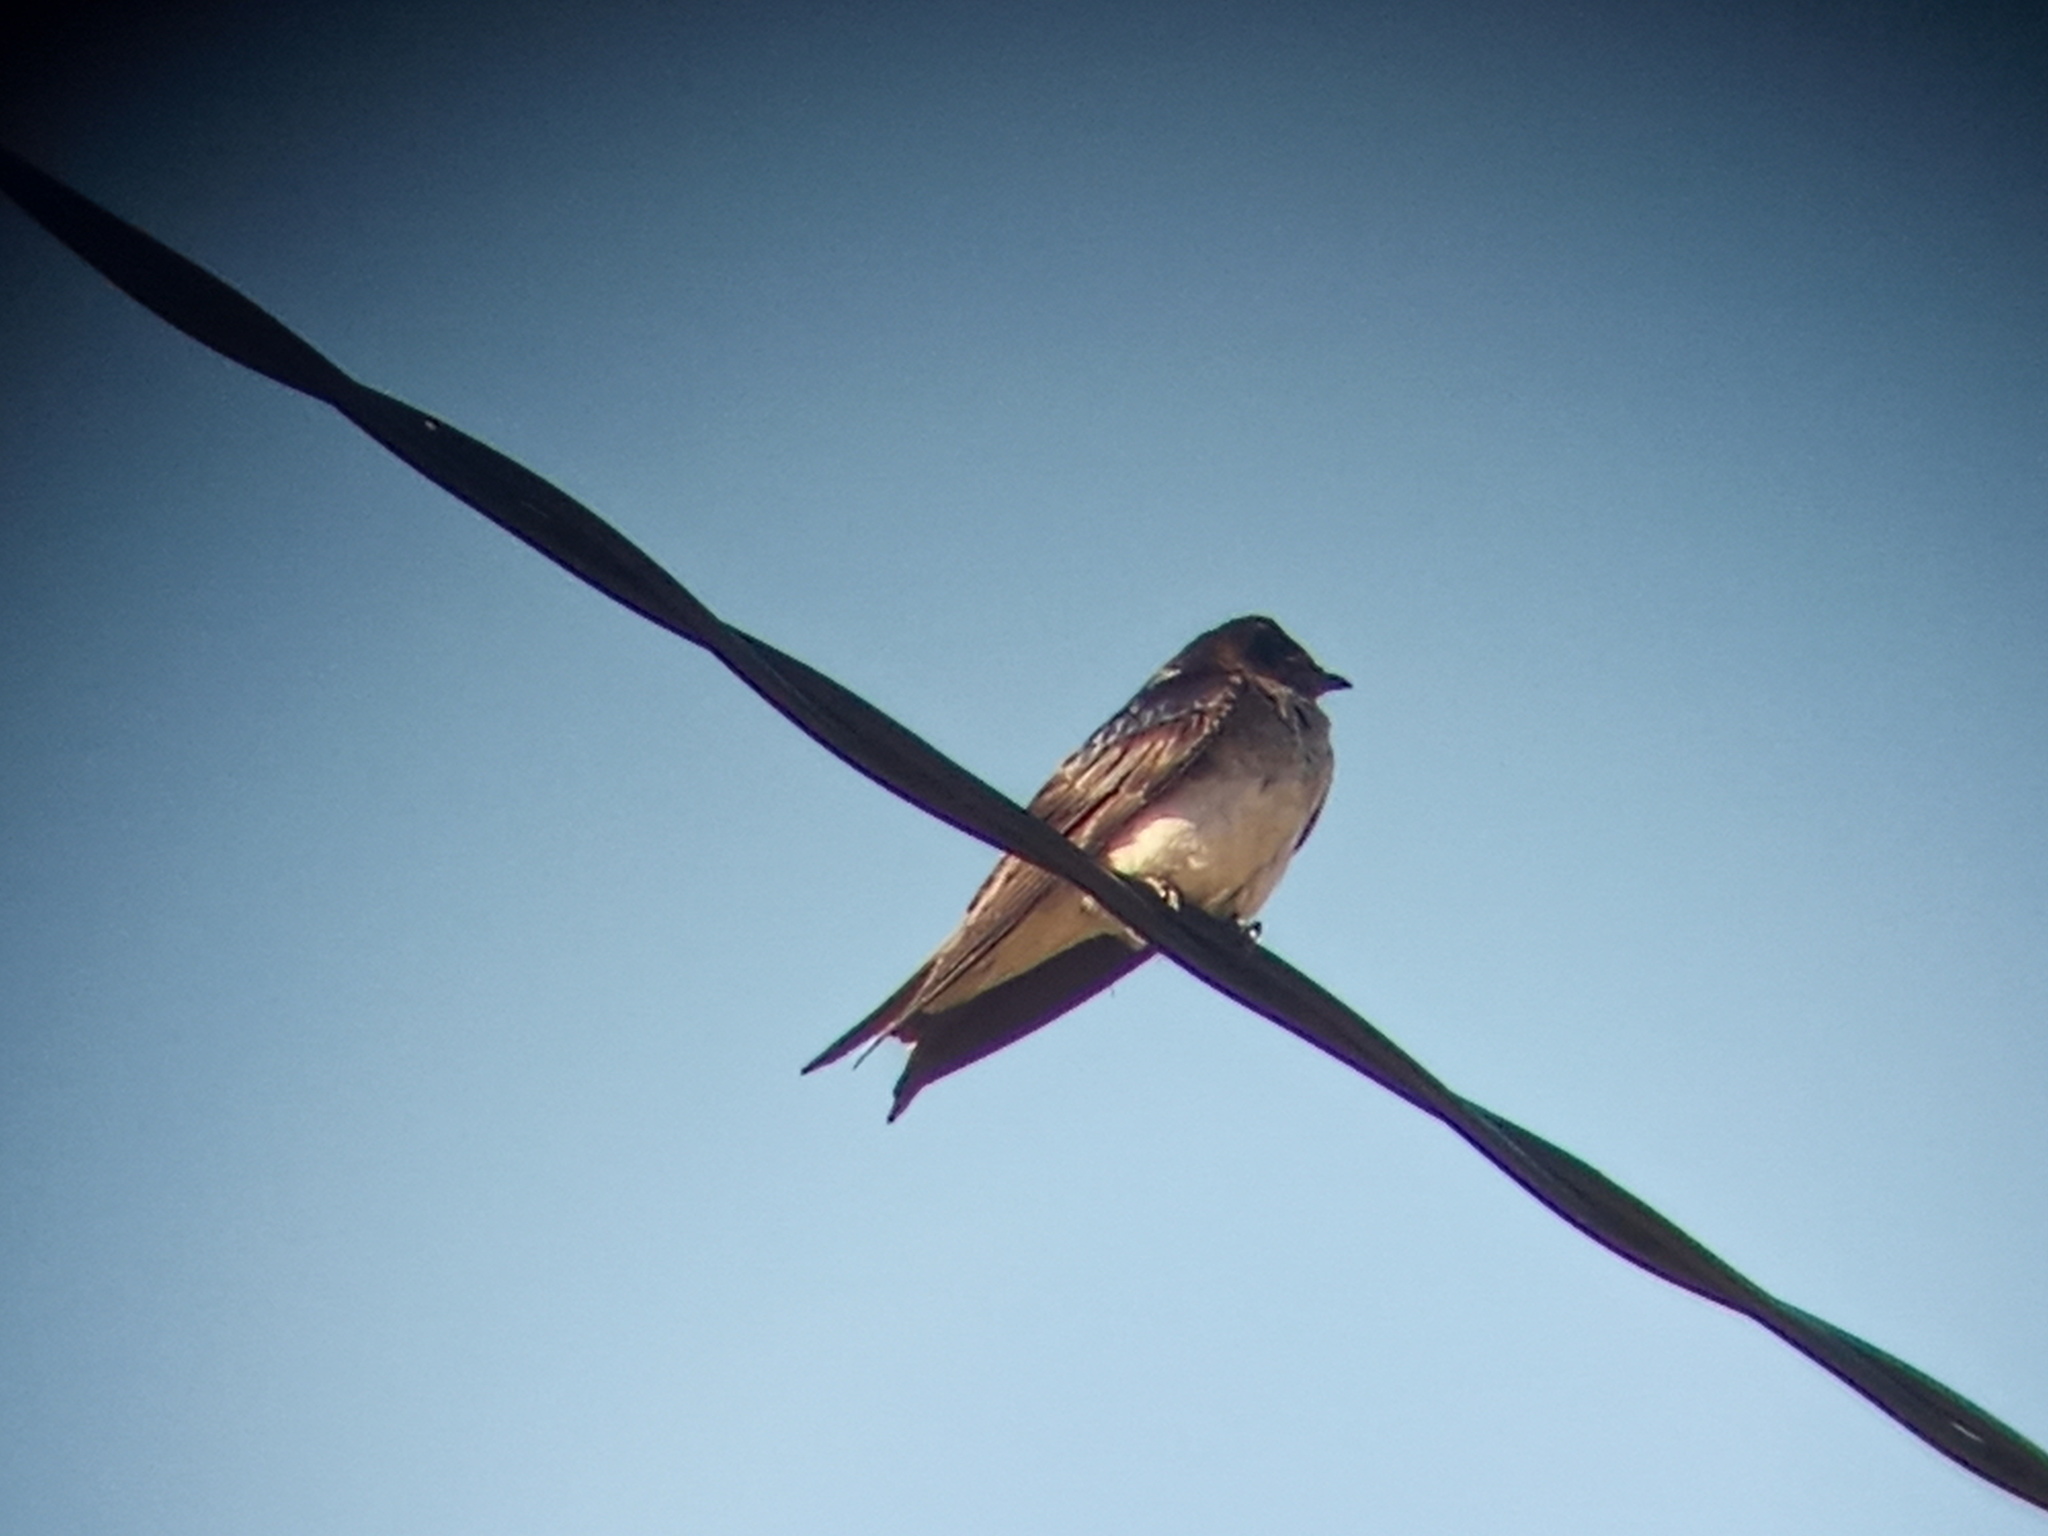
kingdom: Animalia
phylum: Chordata
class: Aves
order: Passeriformes
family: Hirundinidae
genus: Progne
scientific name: Progne chalybea
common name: Grey-breasted martin
